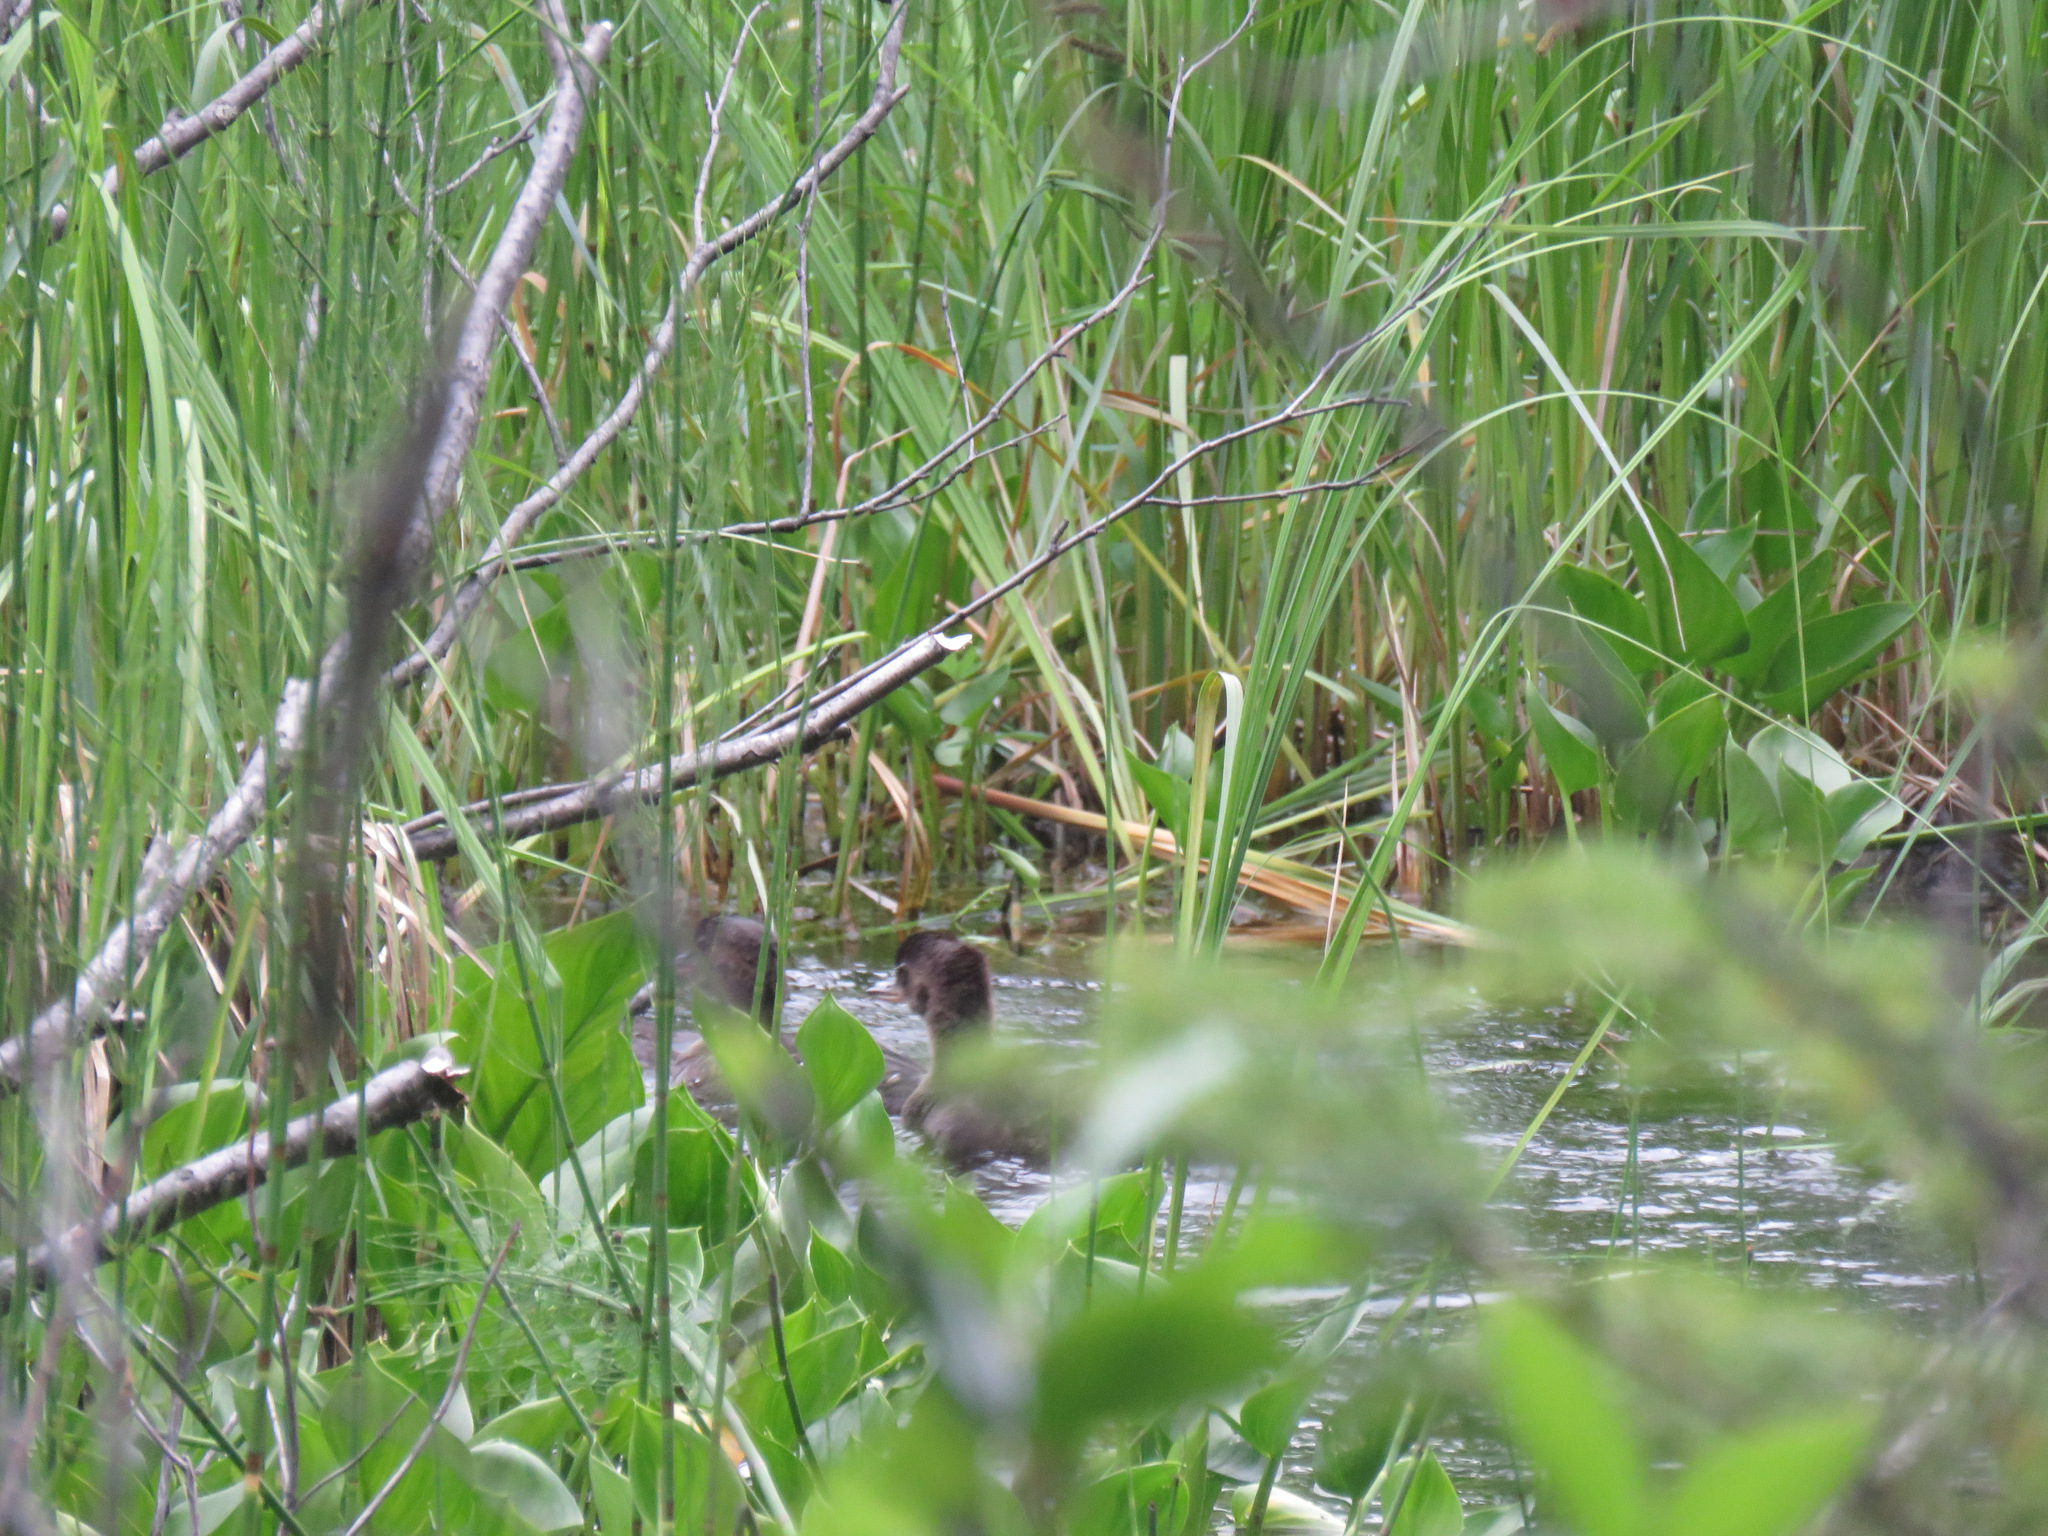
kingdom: Animalia
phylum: Chordata
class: Aves
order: Anseriformes
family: Anatidae
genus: Lophodytes
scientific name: Lophodytes cucullatus
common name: Hooded merganser
